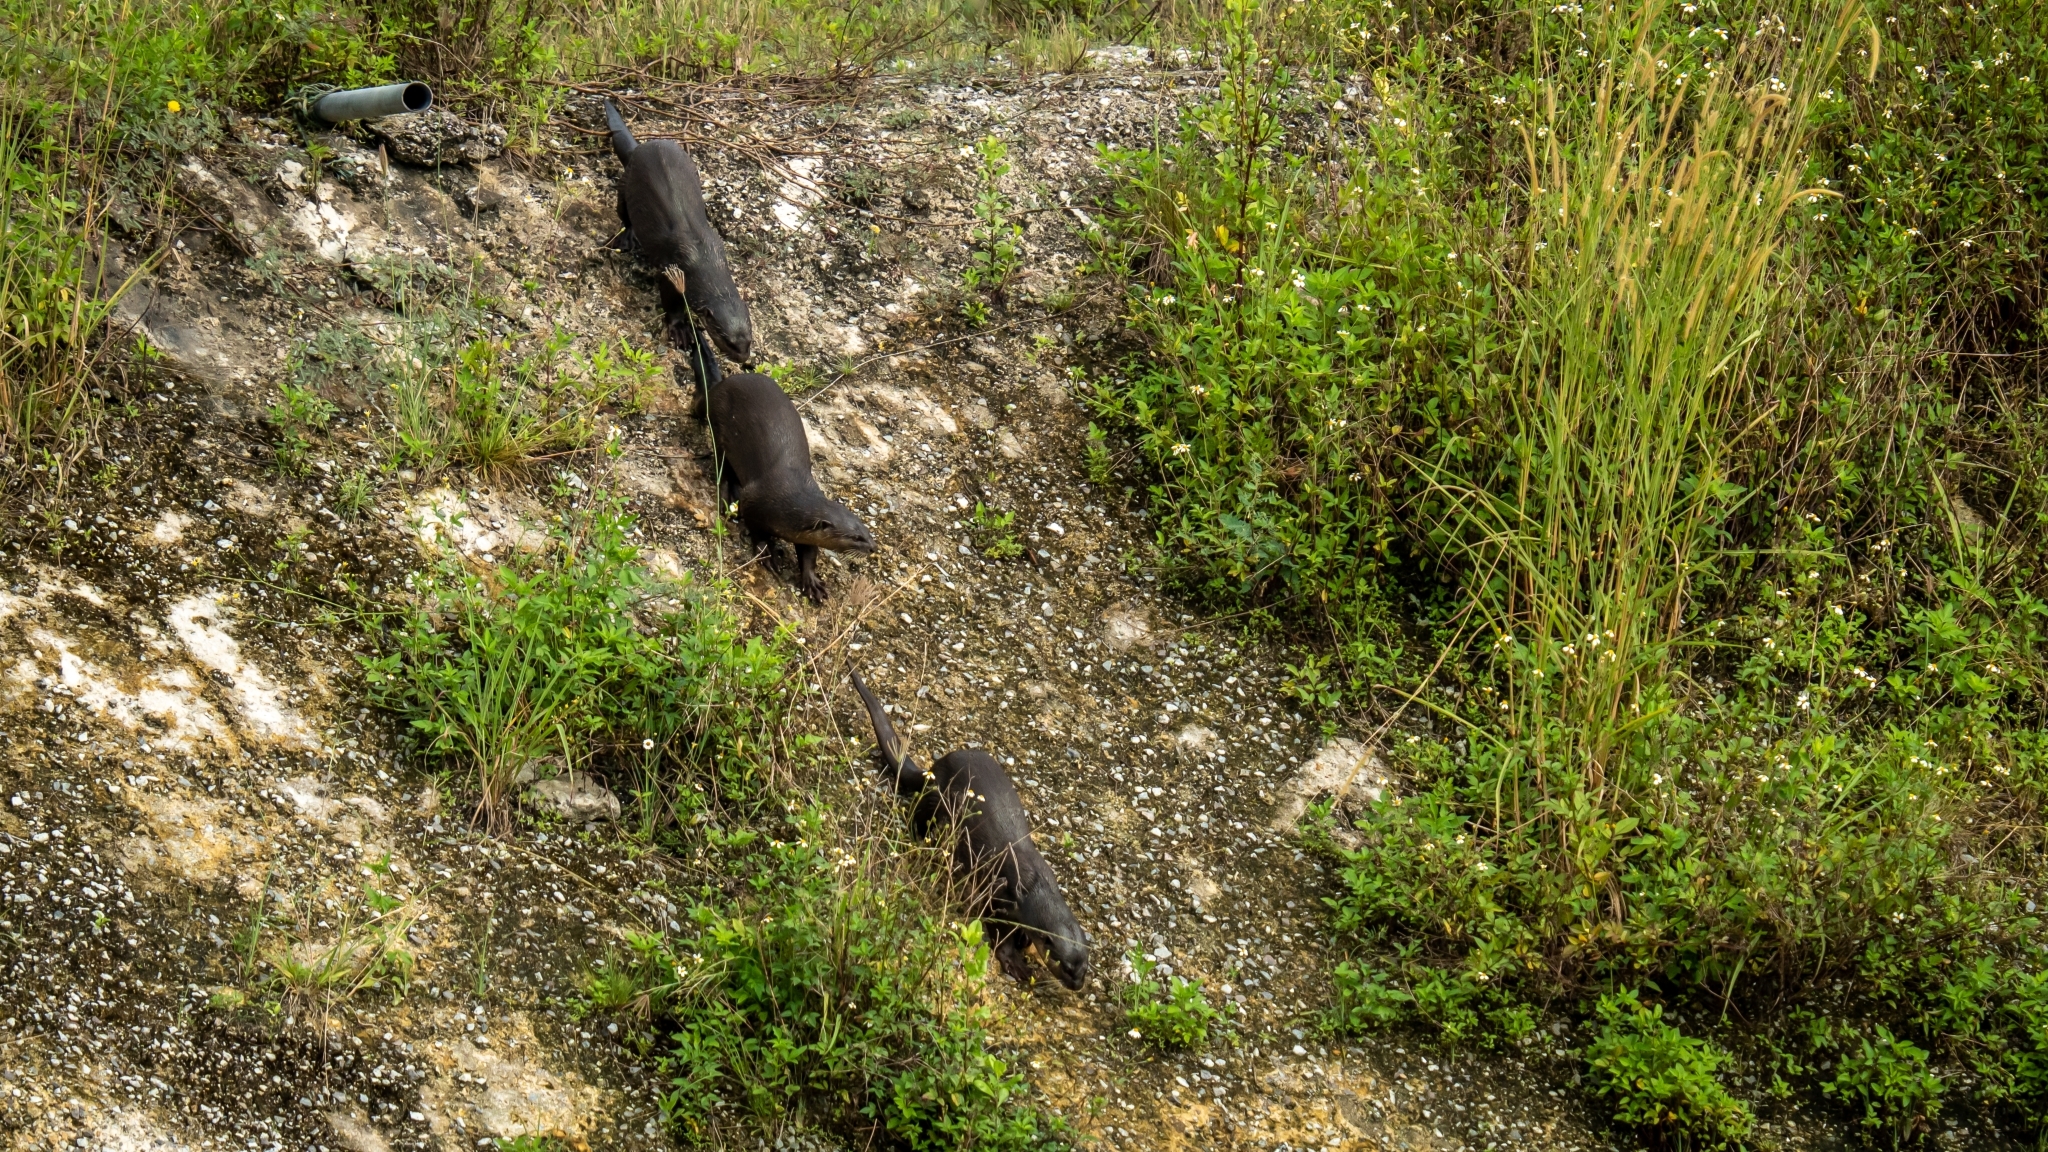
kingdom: Animalia
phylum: Chordata
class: Mammalia
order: Carnivora
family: Mustelidae
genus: Lutrogale
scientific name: Lutrogale perspicillata
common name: Smooth-coated otter
